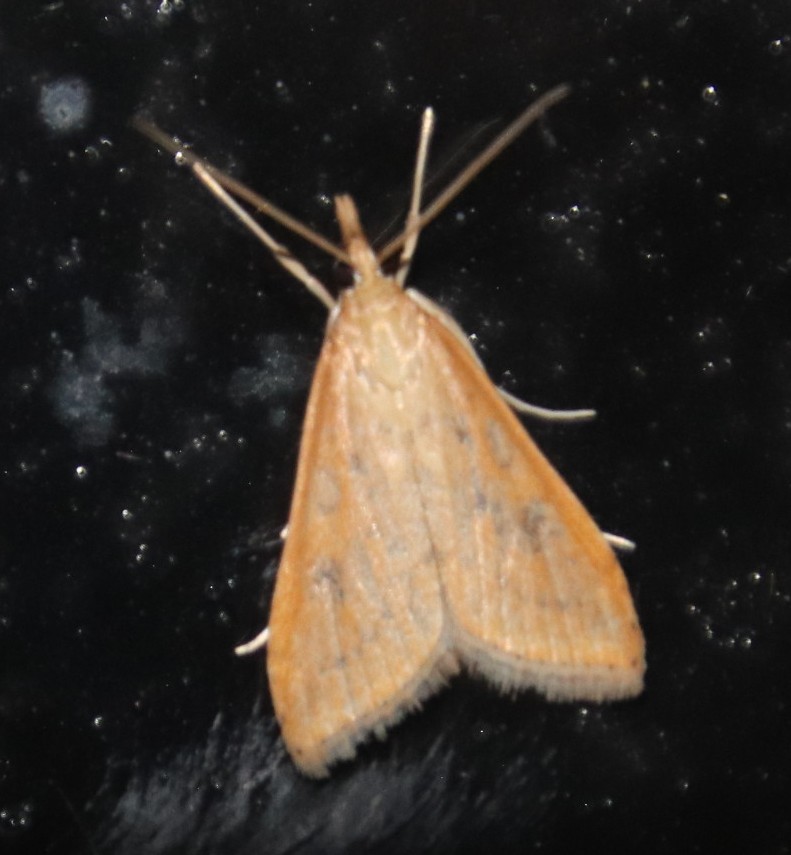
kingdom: Animalia
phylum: Arthropoda
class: Insecta
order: Lepidoptera
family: Crambidae
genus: Udea
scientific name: Udea ferrugalis
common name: Rusty dot
